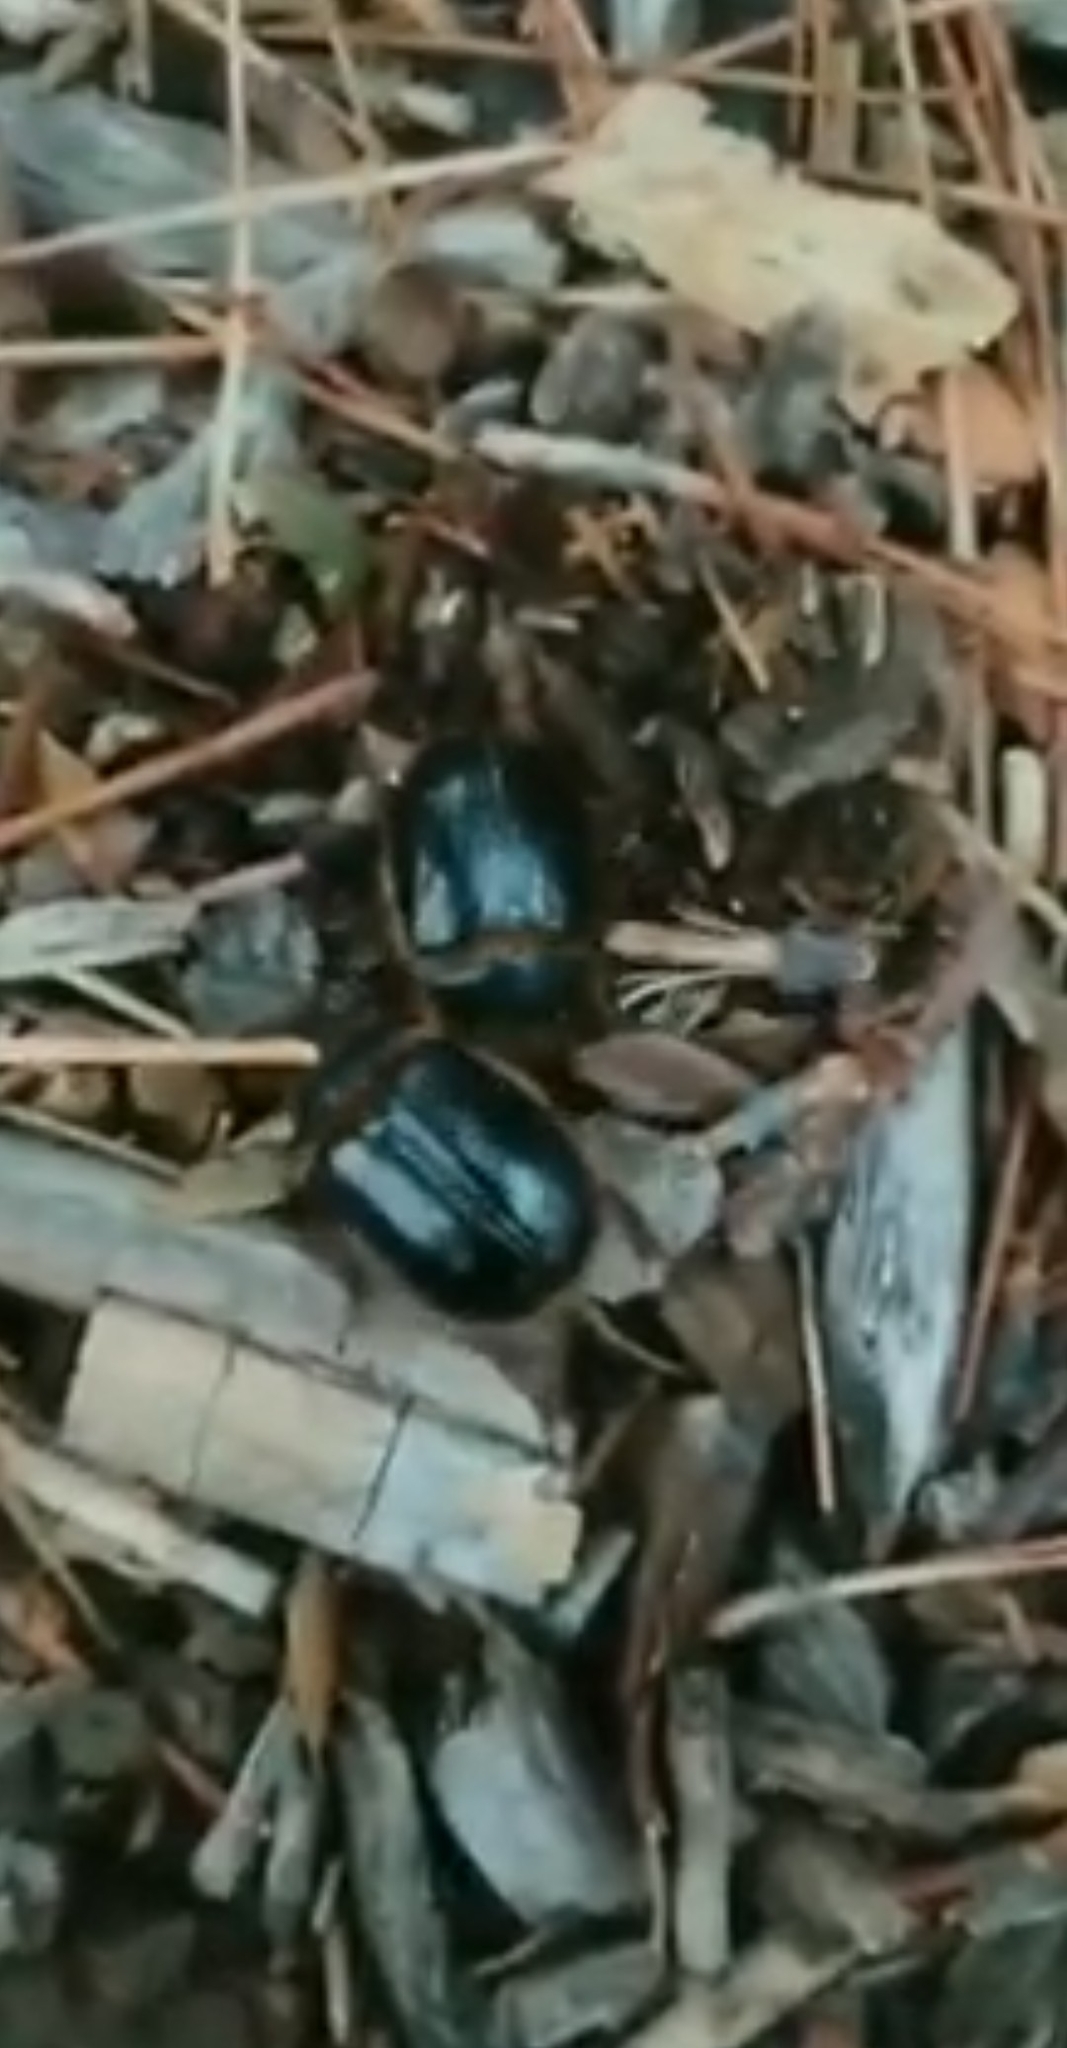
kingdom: Animalia
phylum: Arthropoda
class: Insecta
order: Coleoptera
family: Pleocomidae
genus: Pleocoma
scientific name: Pleocoma australis
